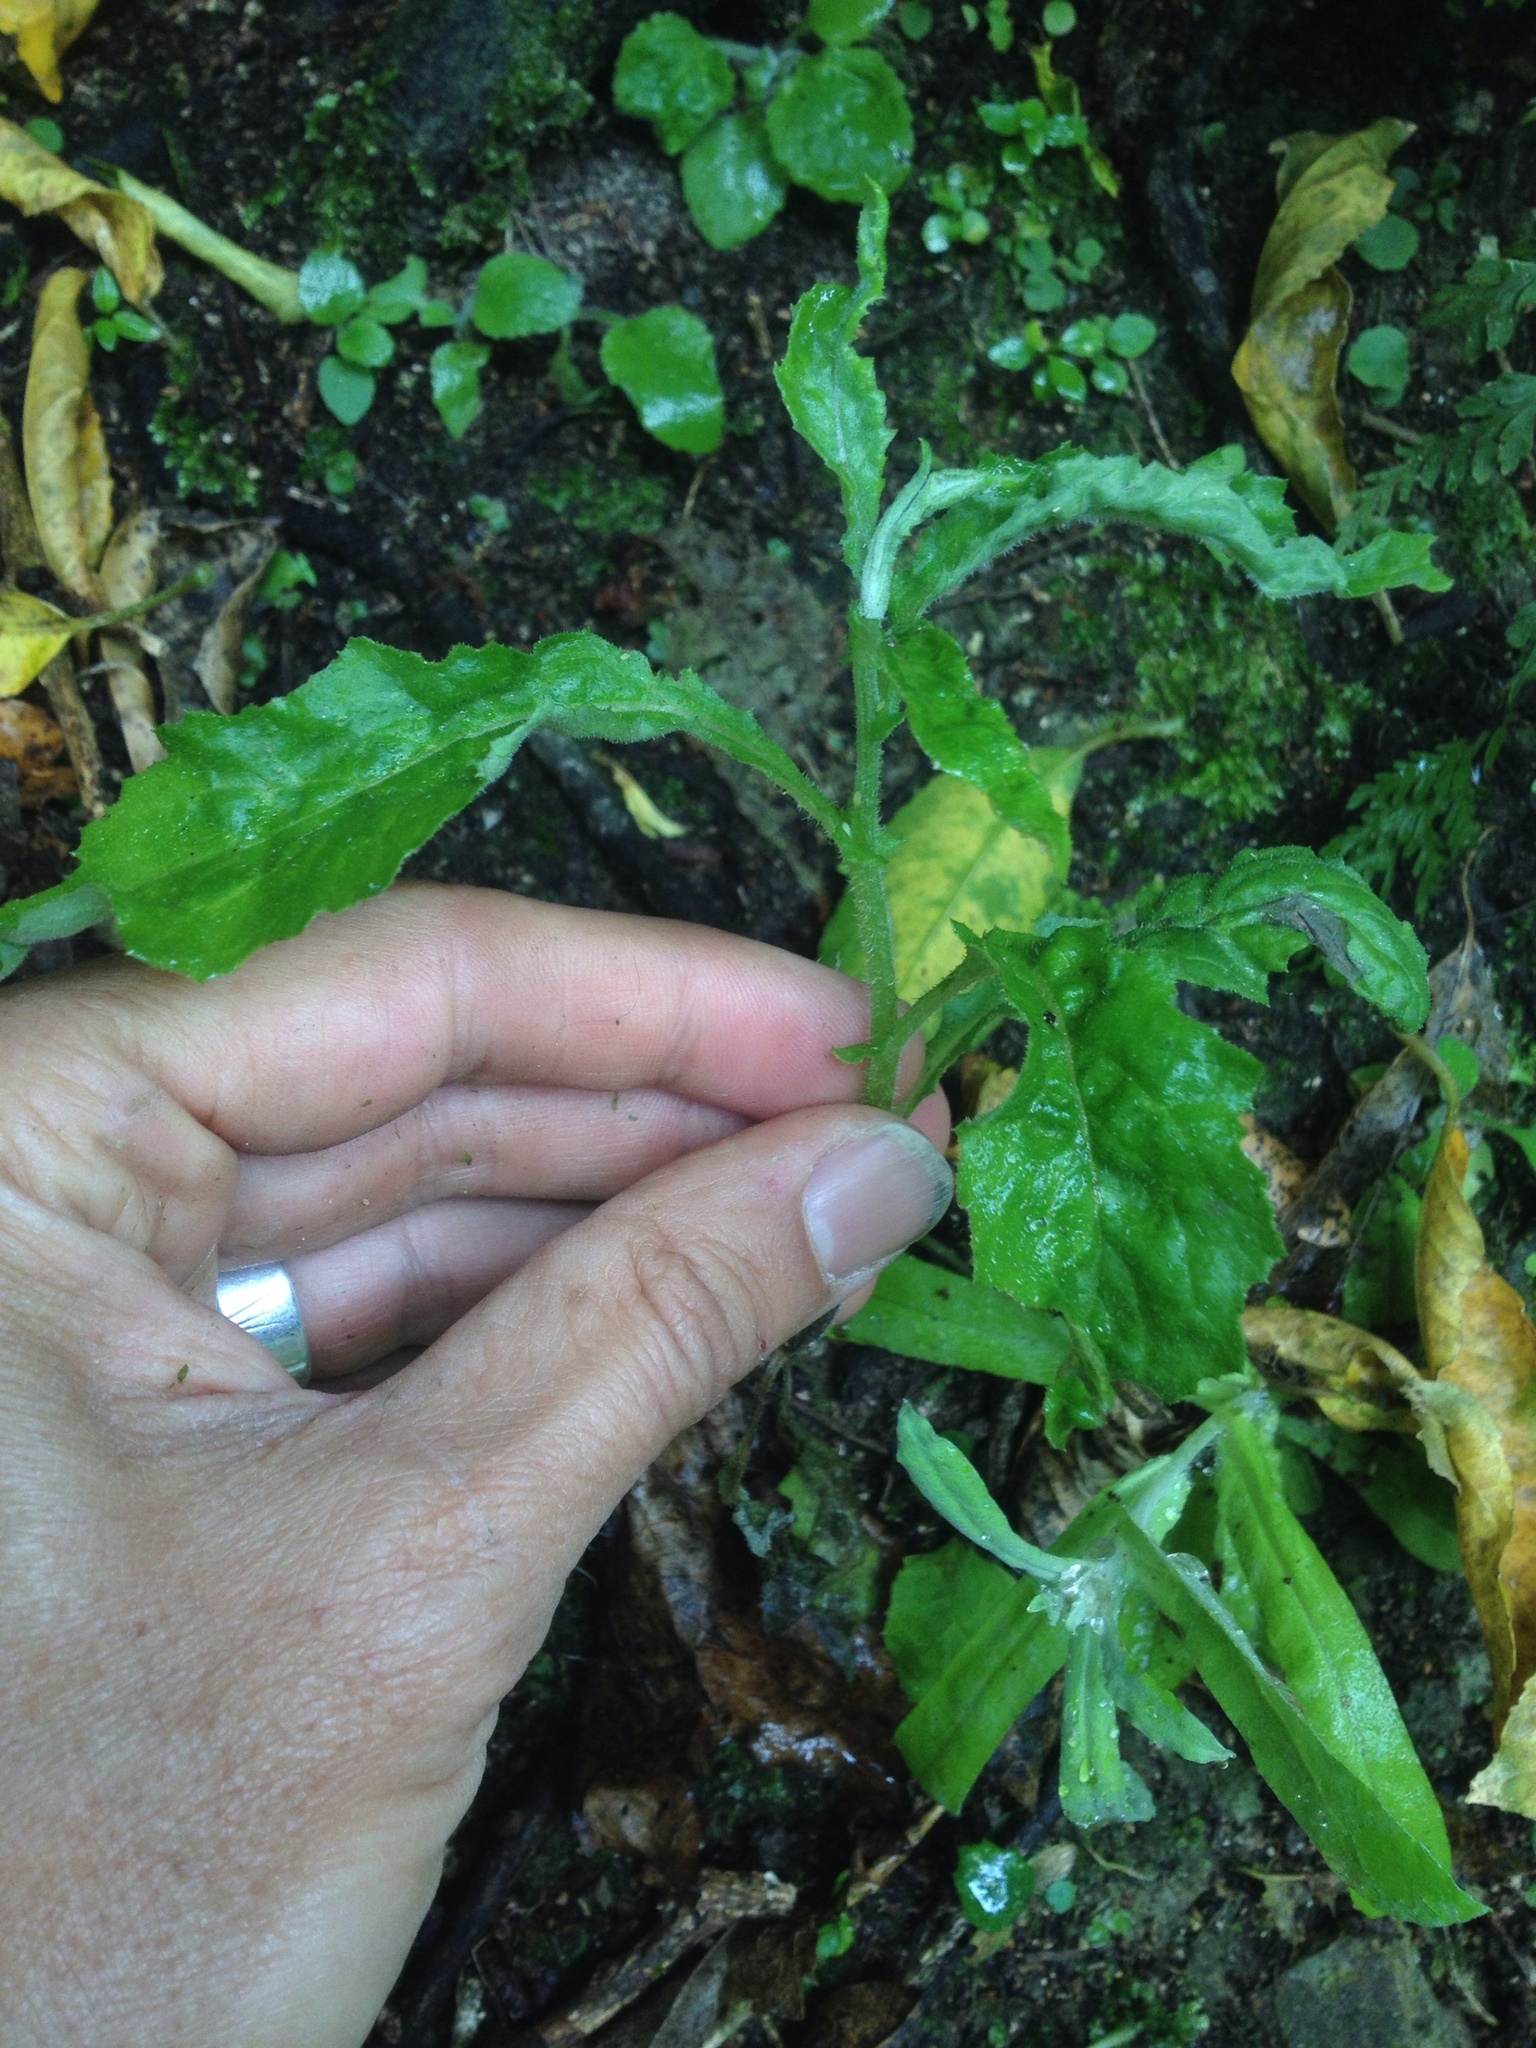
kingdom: Plantae
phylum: Tracheophyta
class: Magnoliopsida
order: Asterales
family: Asteraceae
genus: Senecio
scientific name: Senecio minimus
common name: Toothed fireweed
